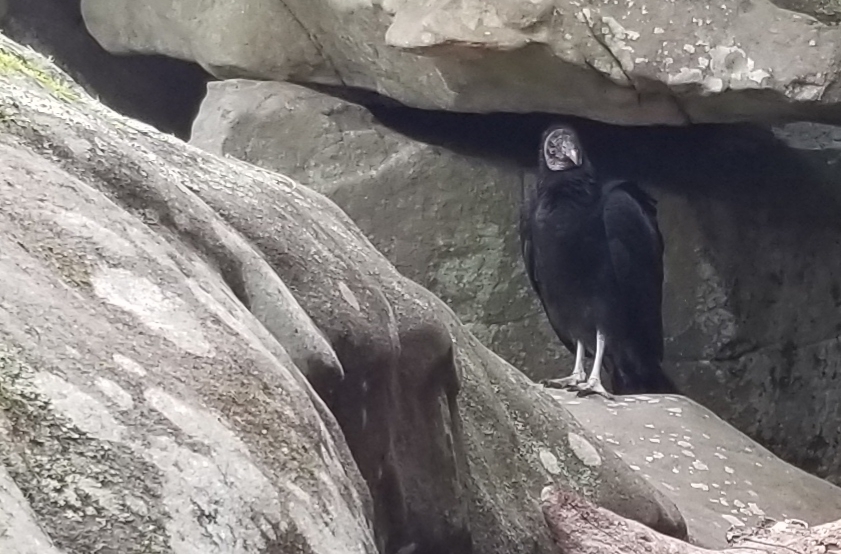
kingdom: Animalia
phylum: Chordata
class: Aves
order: Accipitriformes
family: Cathartidae
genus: Coragyps
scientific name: Coragyps atratus
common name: Black vulture
